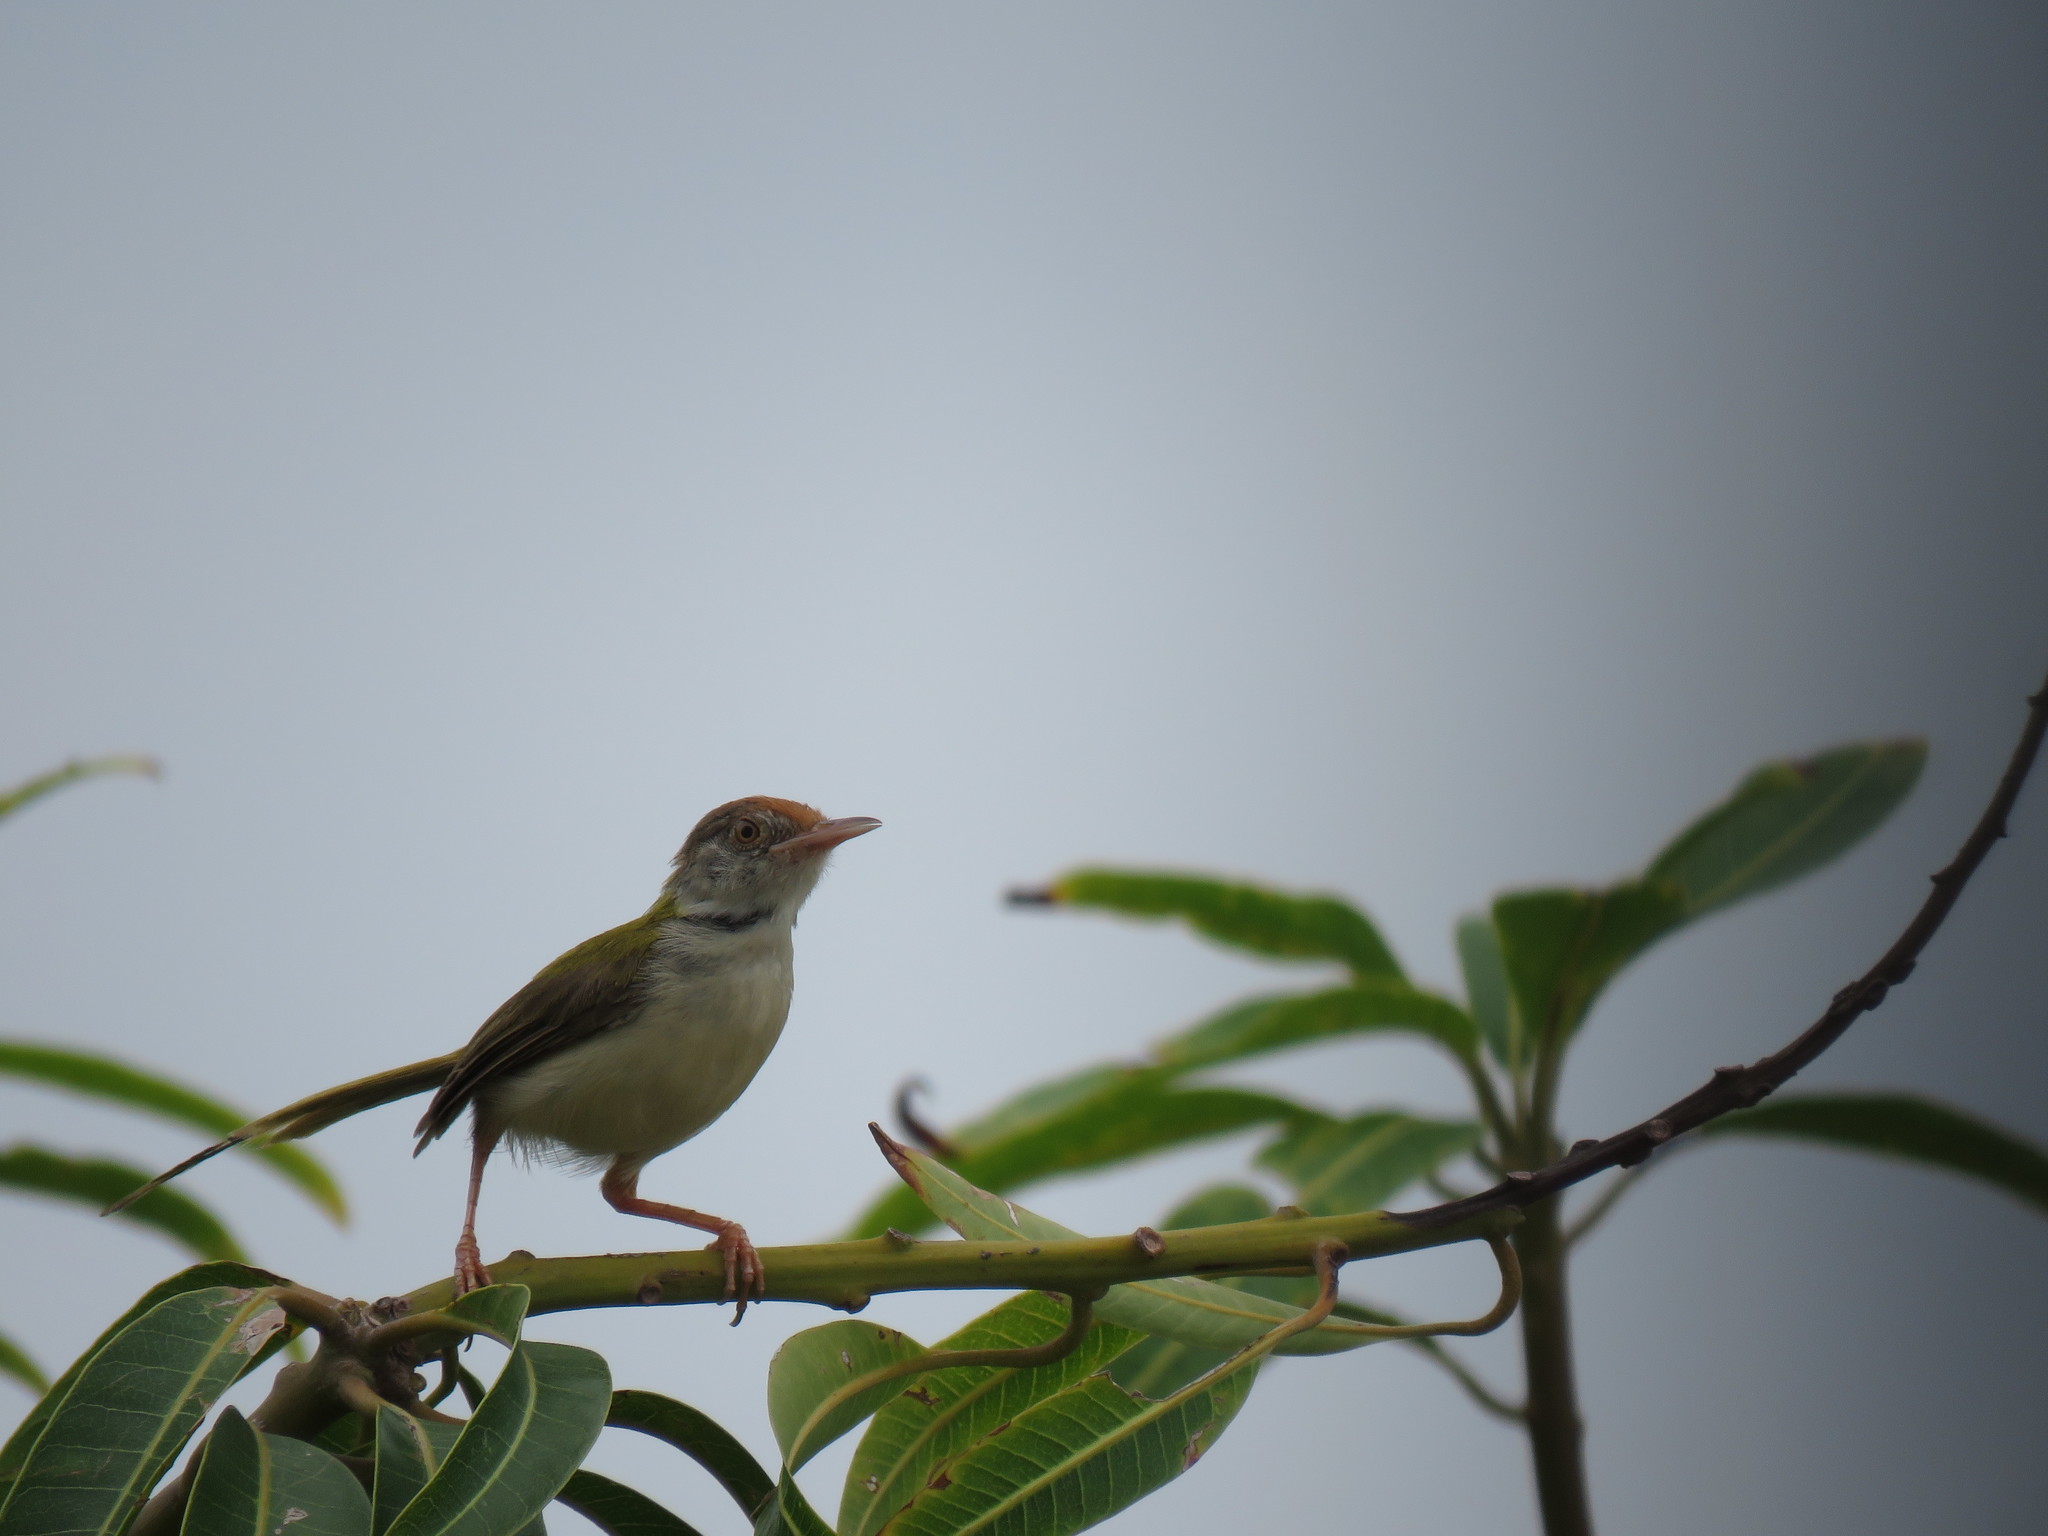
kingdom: Animalia
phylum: Chordata
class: Aves
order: Passeriformes
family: Cisticolidae
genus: Orthotomus
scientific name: Orthotomus sutorius
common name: Common tailorbird
